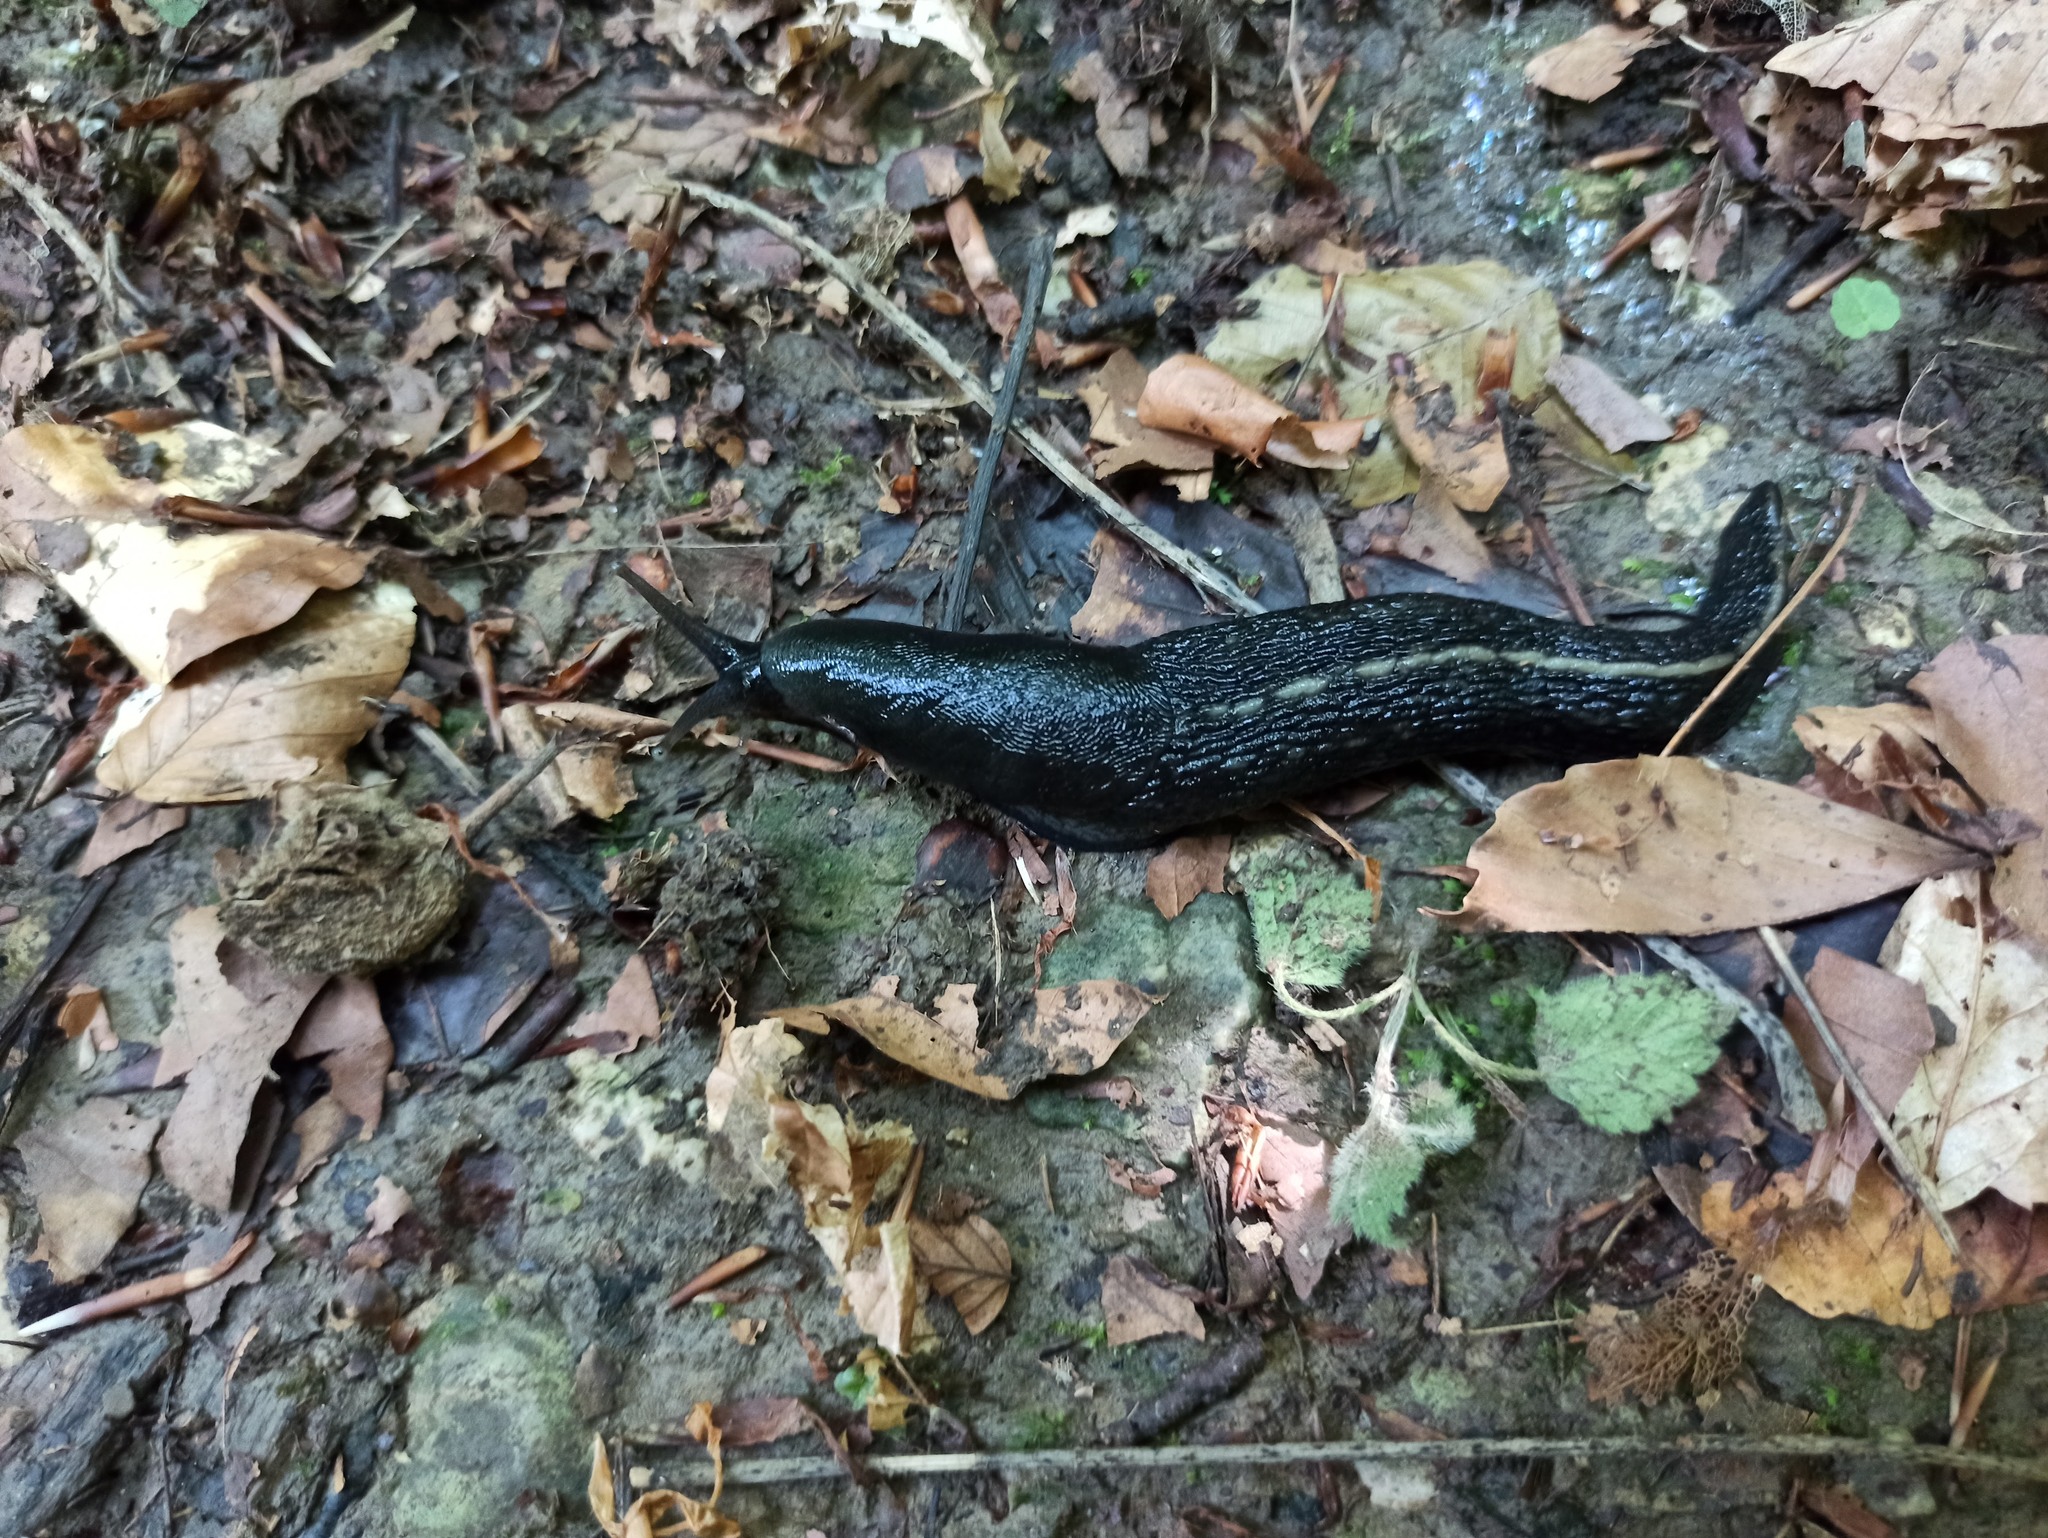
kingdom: Animalia
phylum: Mollusca
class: Gastropoda
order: Stylommatophora
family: Limacidae
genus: Limax
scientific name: Limax cinereoniger
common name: Ash-black slug
